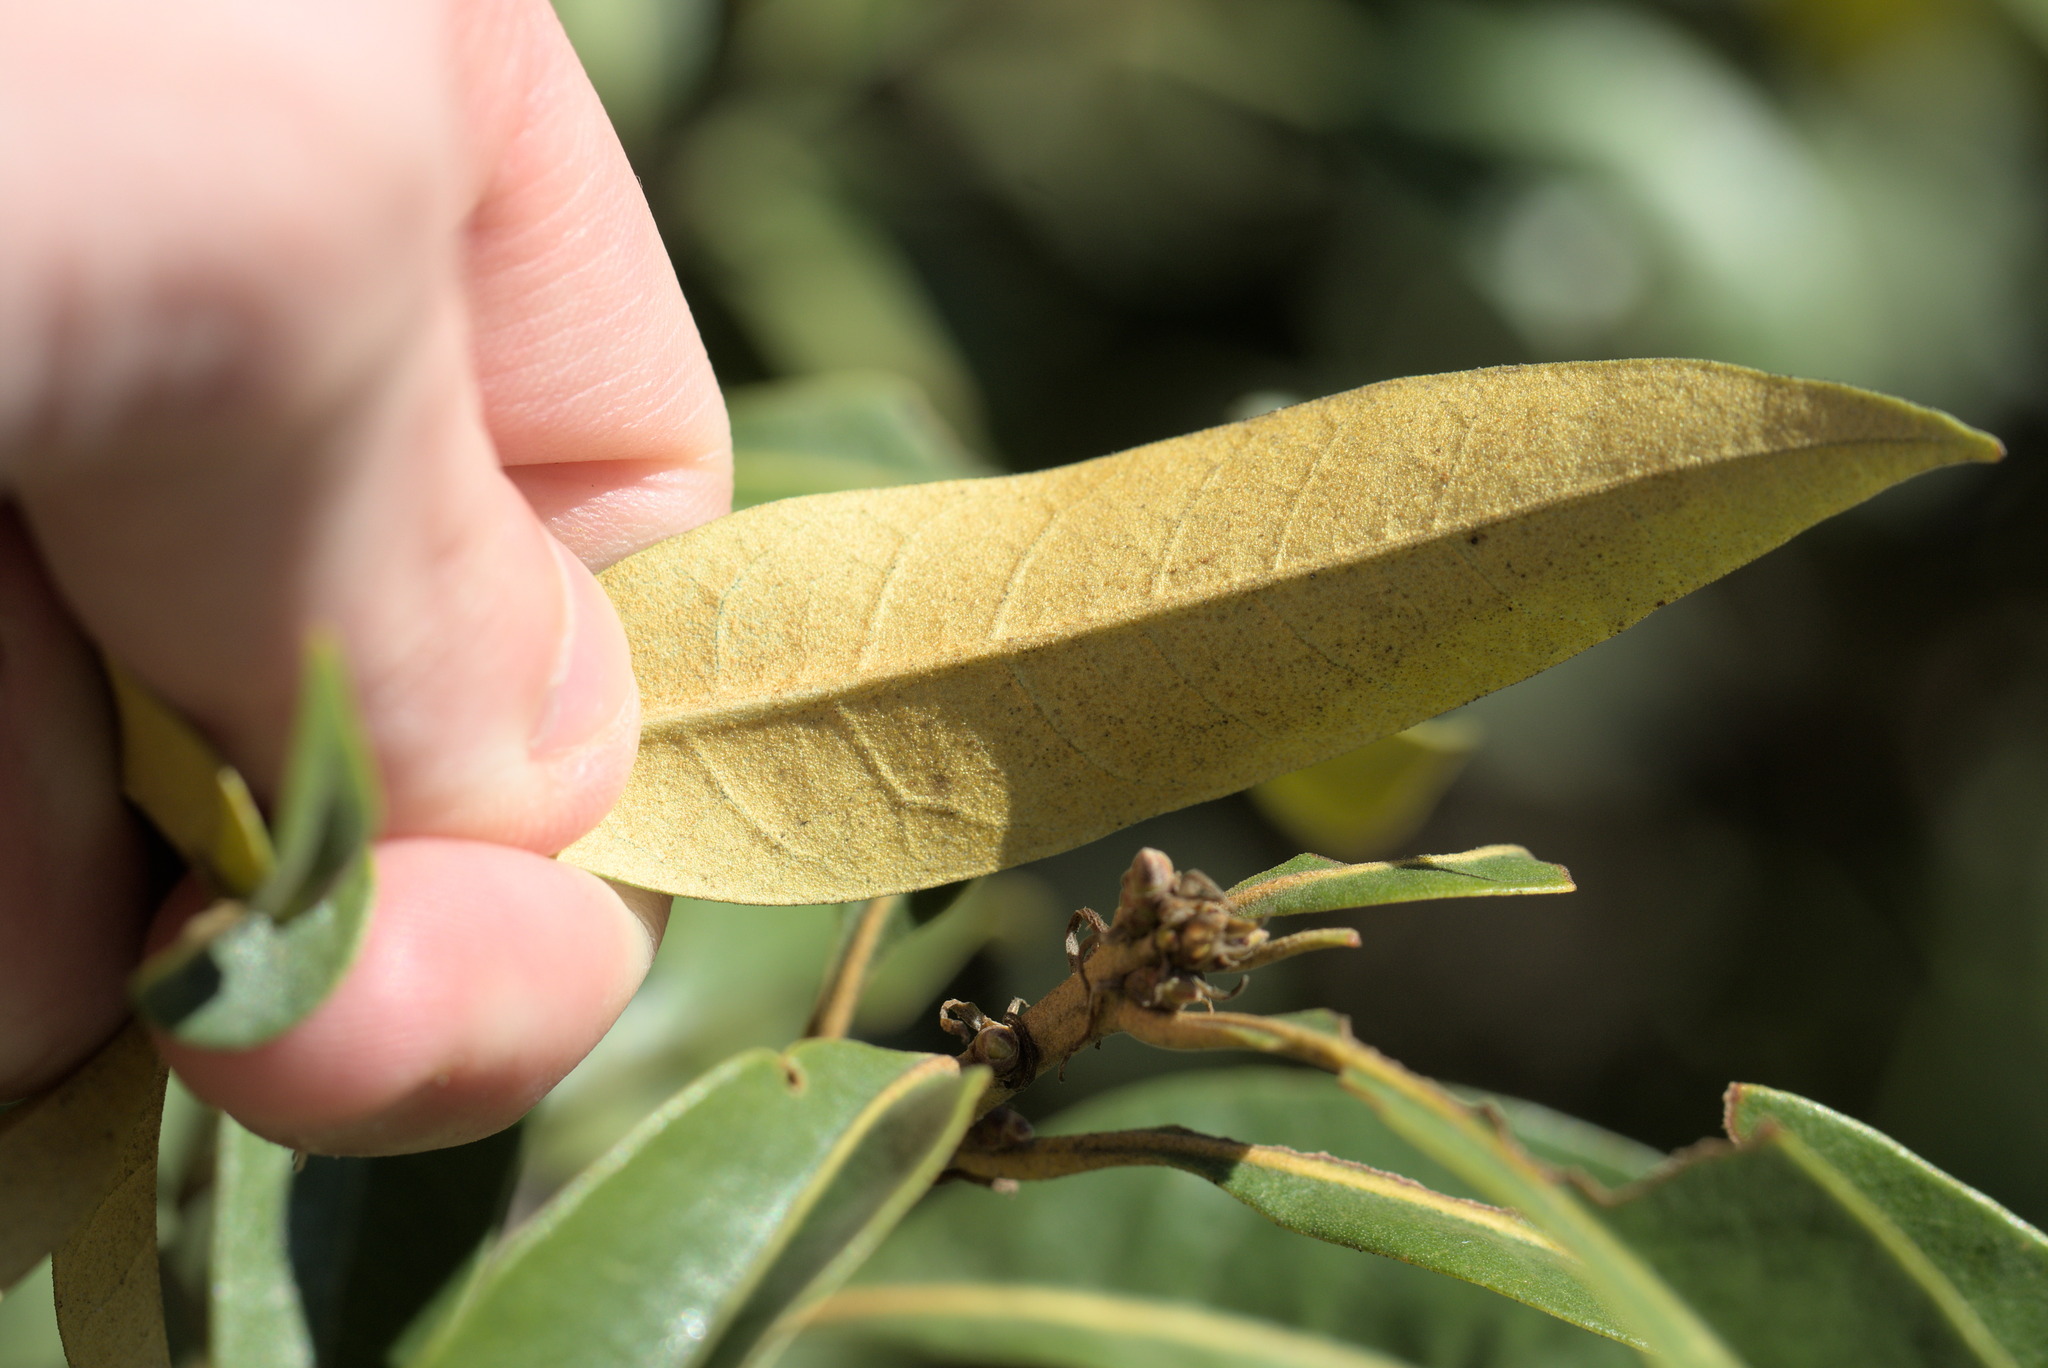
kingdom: Plantae
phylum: Tracheophyta
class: Magnoliopsida
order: Fagales
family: Fagaceae
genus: Chrysolepis
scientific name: Chrysolepis chrysophylla
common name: Giant chinquapin
